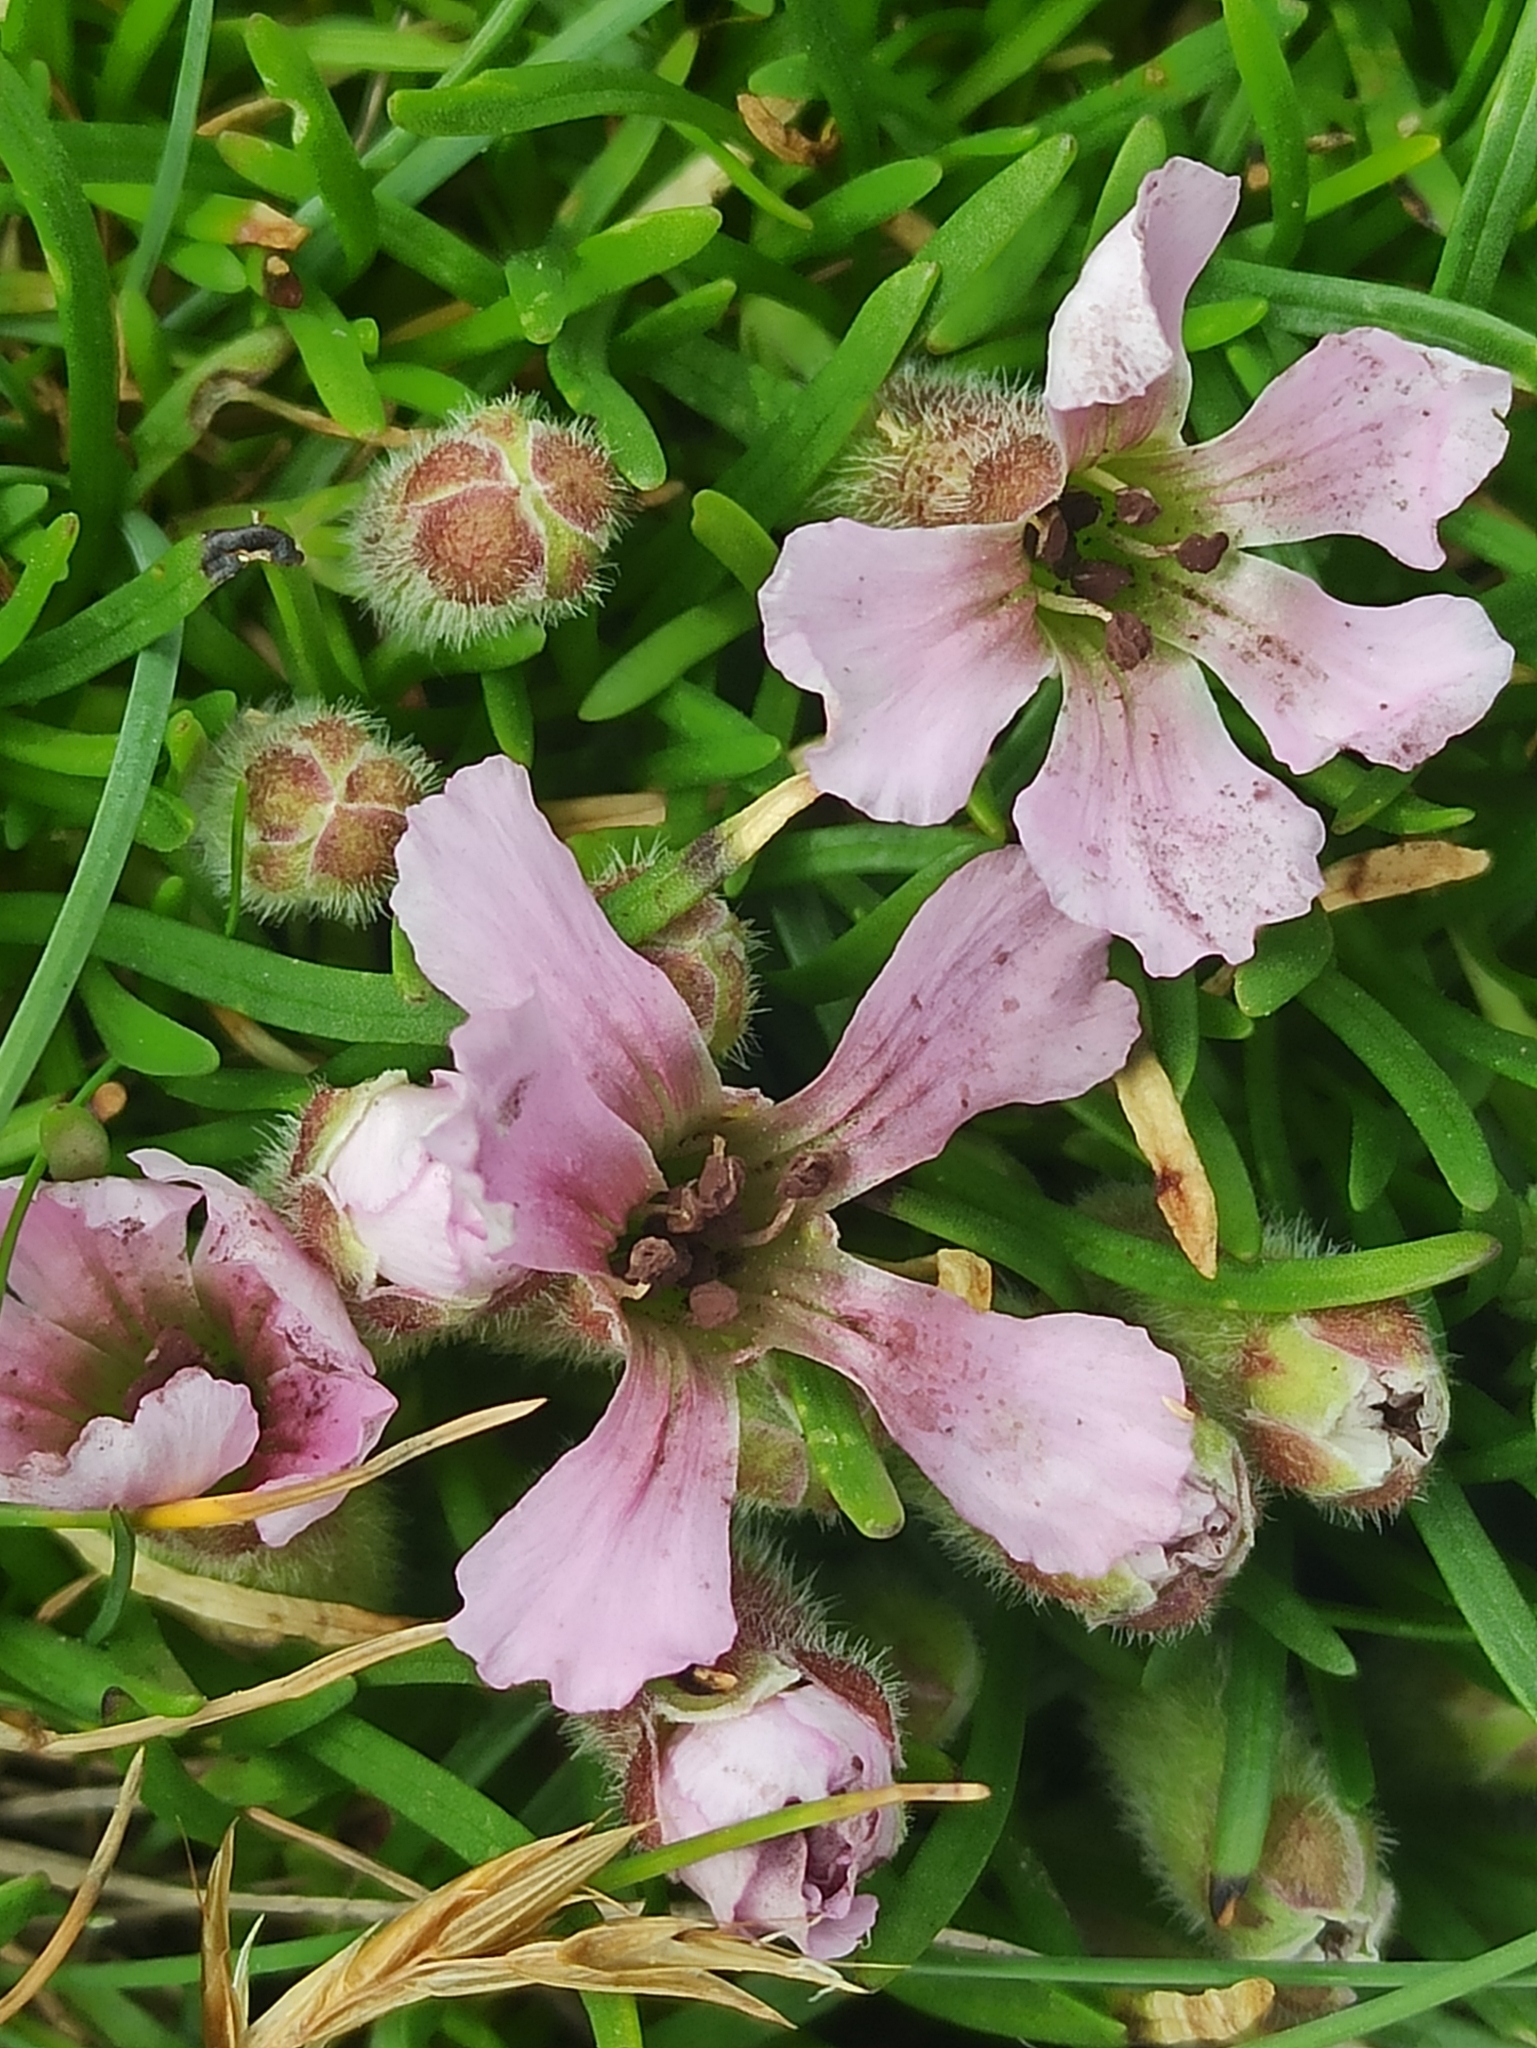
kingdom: Plantae
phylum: Tracheophyta
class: Magnoliopsida
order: Caryophyllales
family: Caryophyllaceae
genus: Saponaria
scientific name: Saponaria pumila
